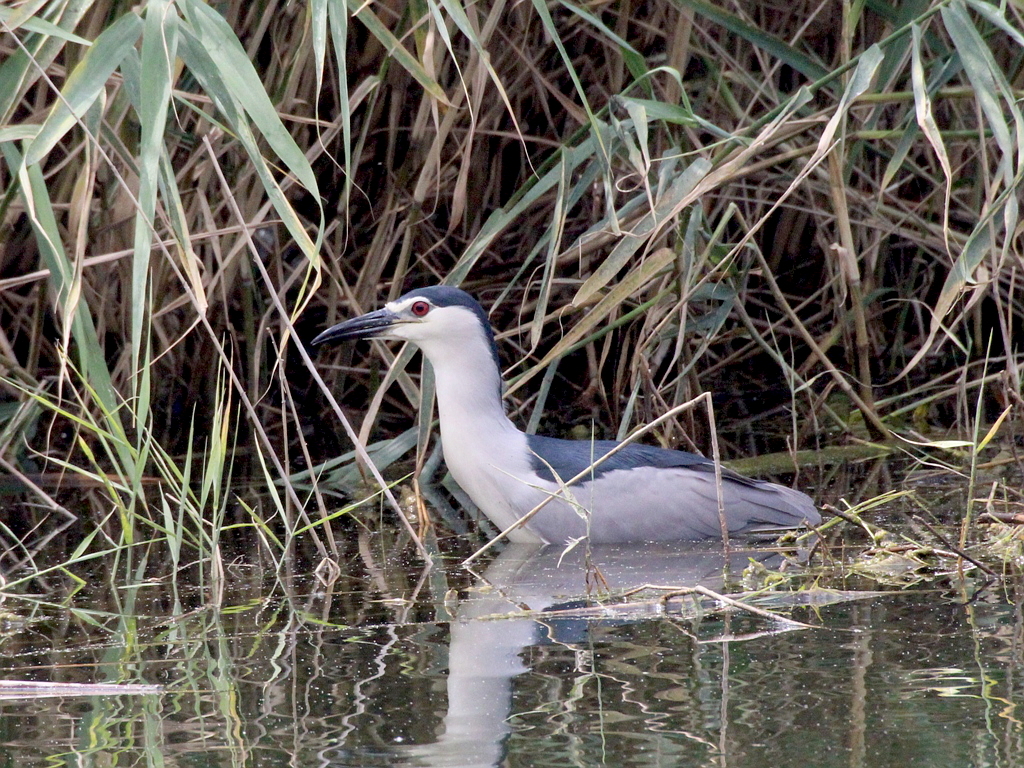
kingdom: Animalia
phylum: Chordata
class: Aves
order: Pelecaniformes
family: Ardeidae
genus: Nycticorax
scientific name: Nycticorax nycticorax
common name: Black-crowned night heron
